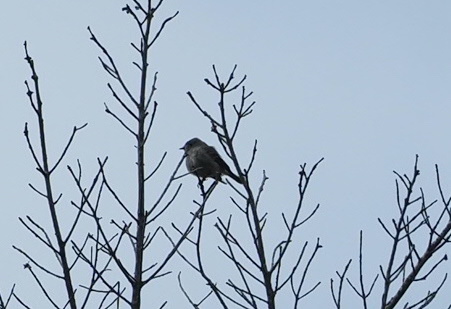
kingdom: Animalia
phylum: Chordata
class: Aves
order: Passeriformes
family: Tyrannidae
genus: Contopus
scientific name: Contopus sordidulus
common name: Western wood-pewee
